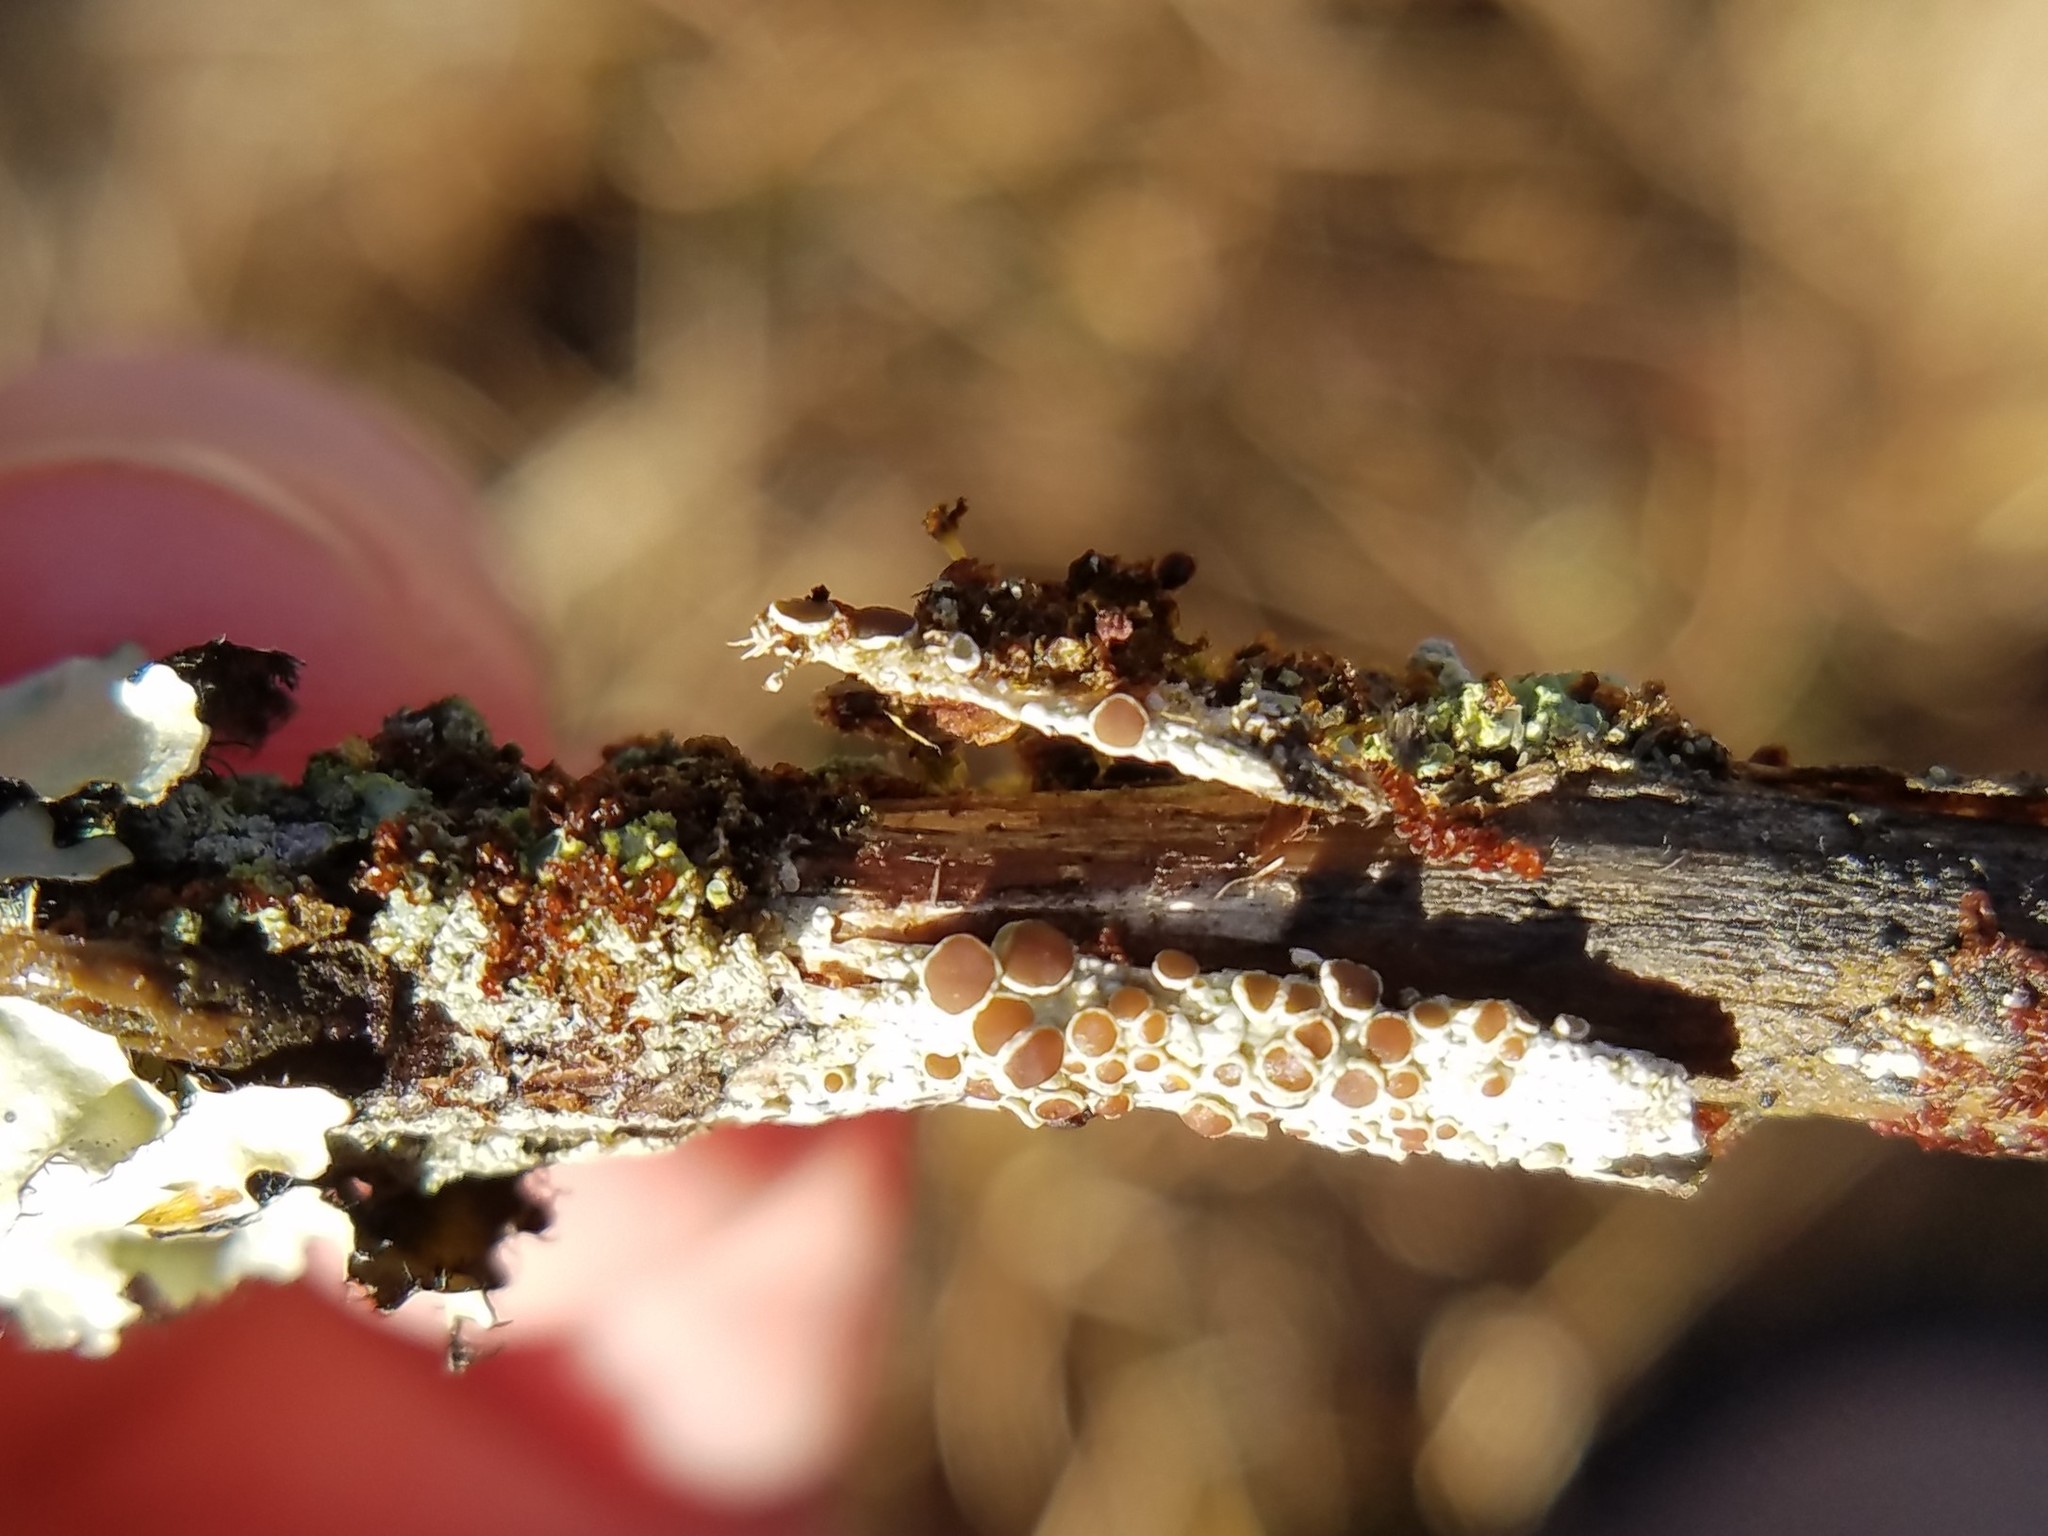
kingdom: Fungi
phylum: Ascomycota
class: Lecanoromycetes
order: Lecanorales
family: Lecanoraceae
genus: Lecanora
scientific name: Lecanora hybocarpa
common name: Bumpy rim-lichen
